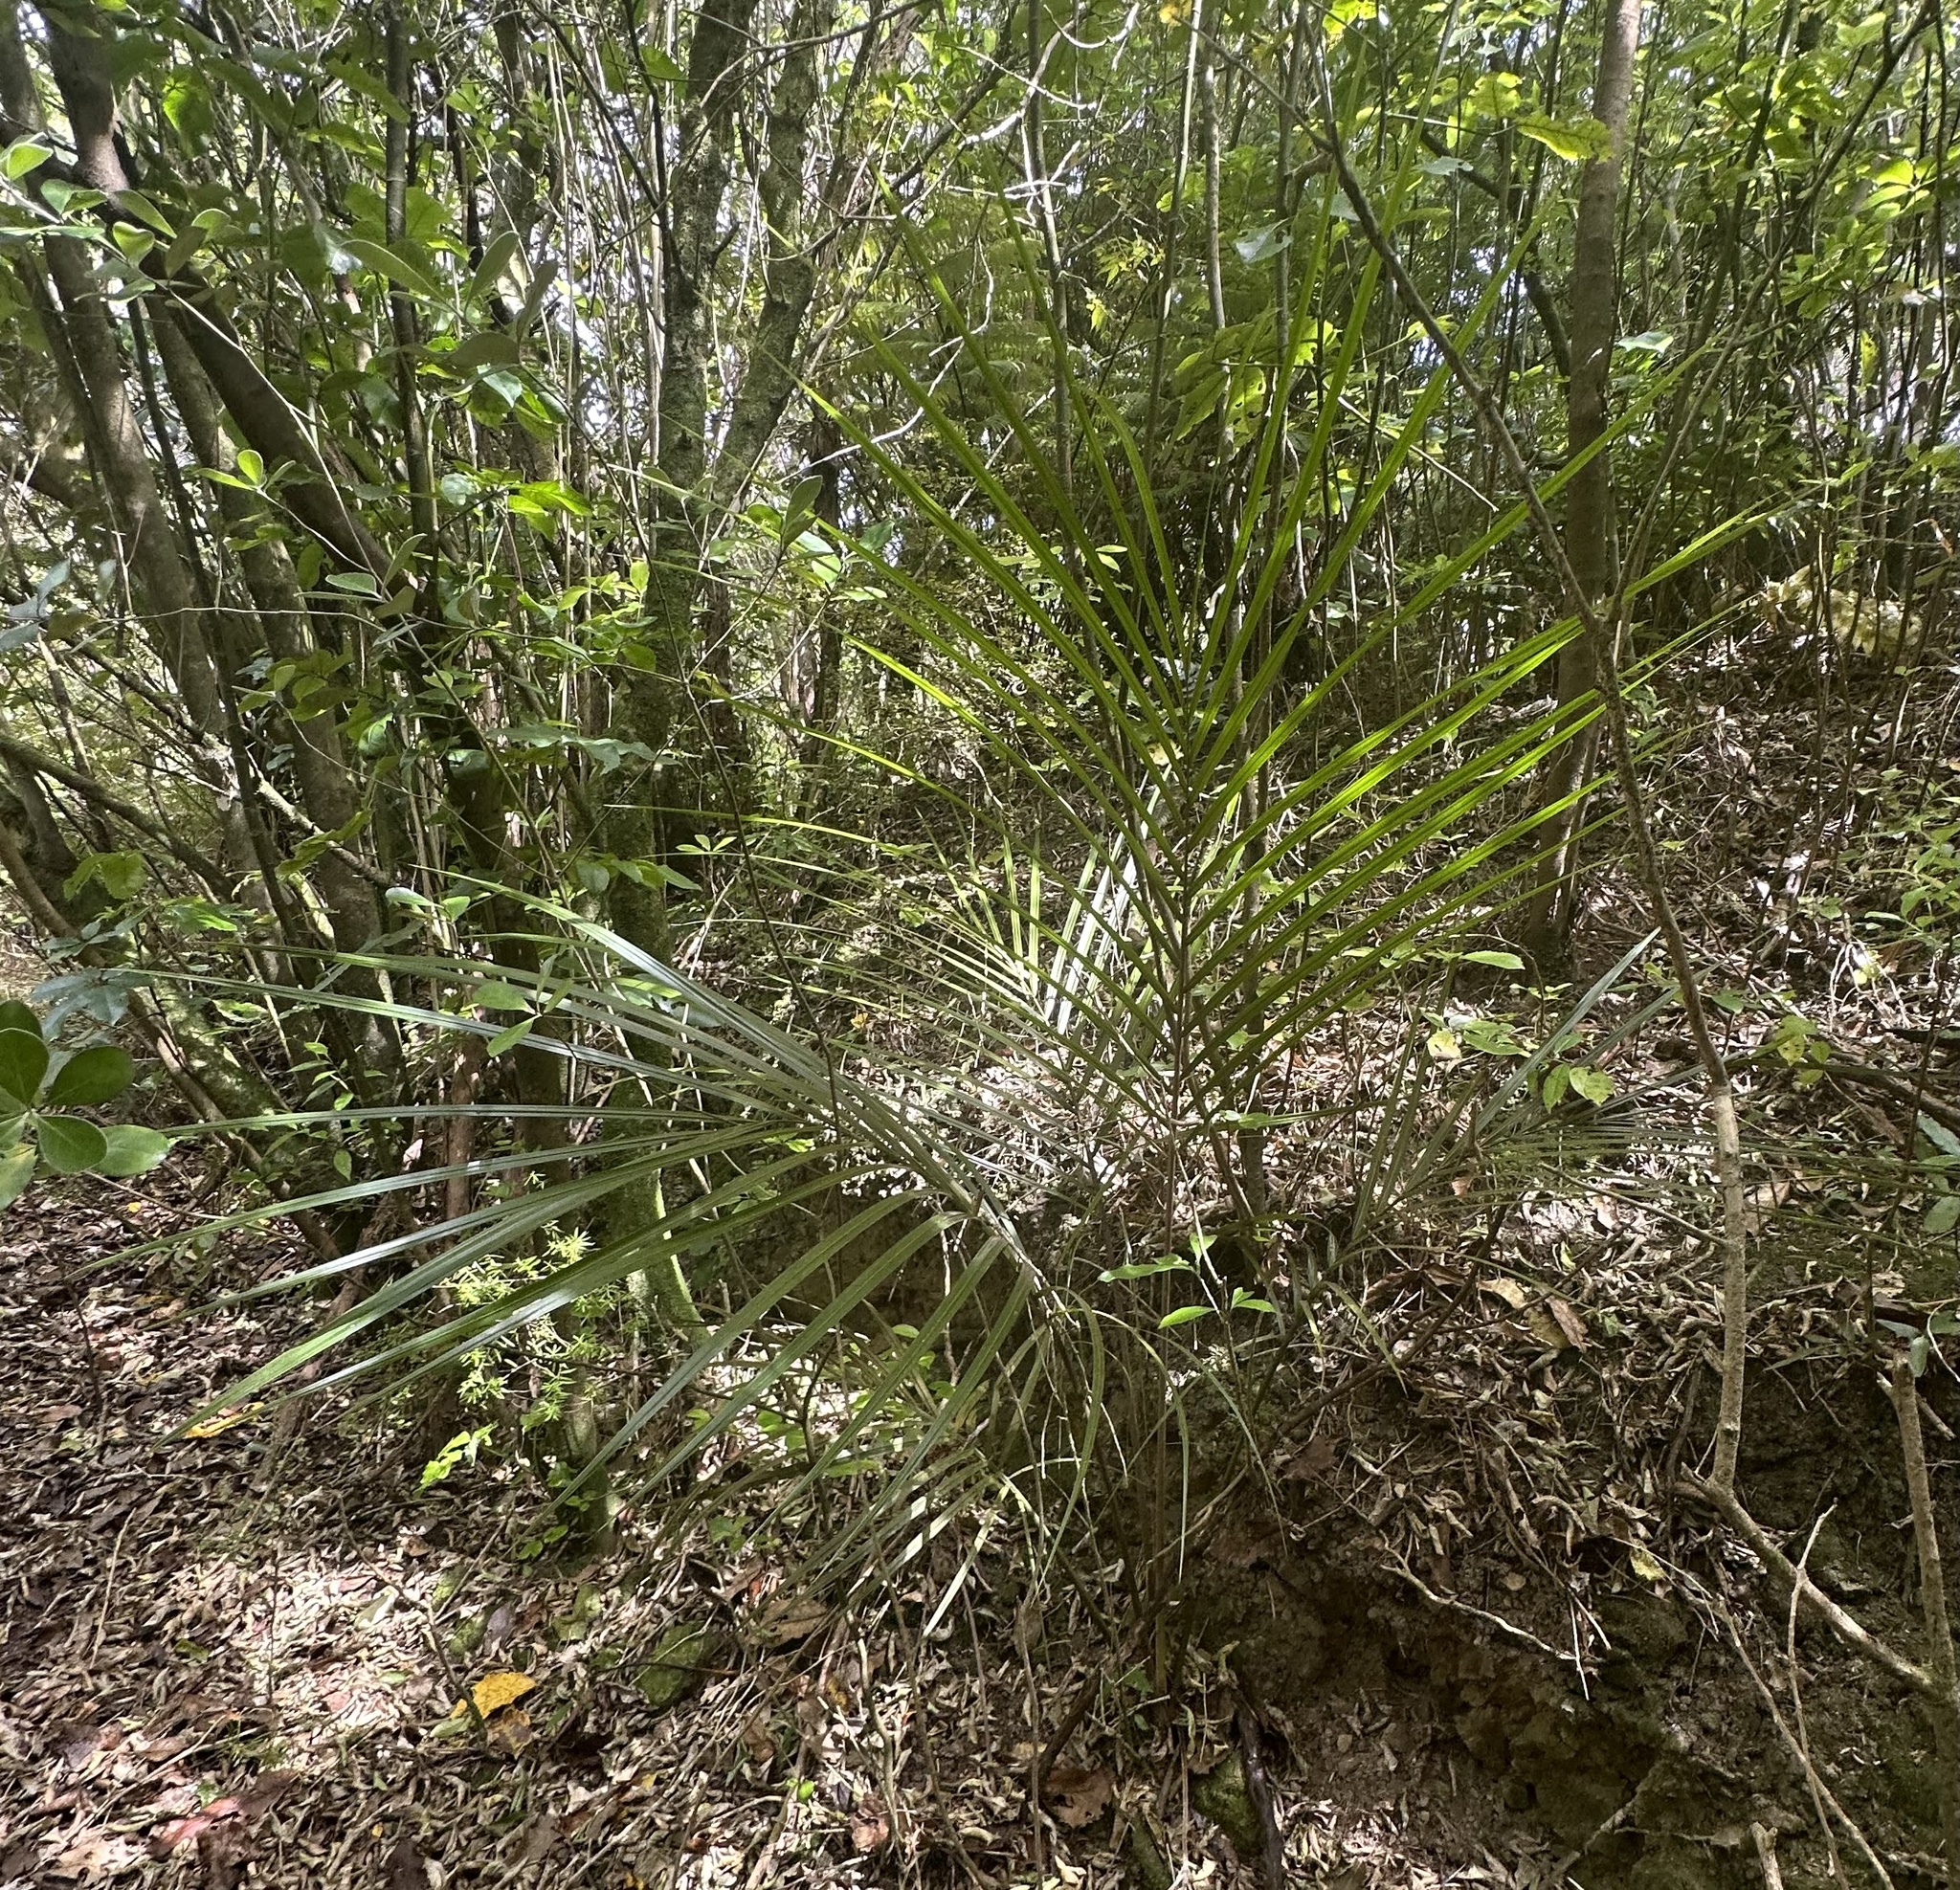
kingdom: Plantae
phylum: Tracheophyta
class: Liliopsida
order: Arecales
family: Arecaceae
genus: Rhopalostylis
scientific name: Rhopalostylis sapida
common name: Feather-duster palm
